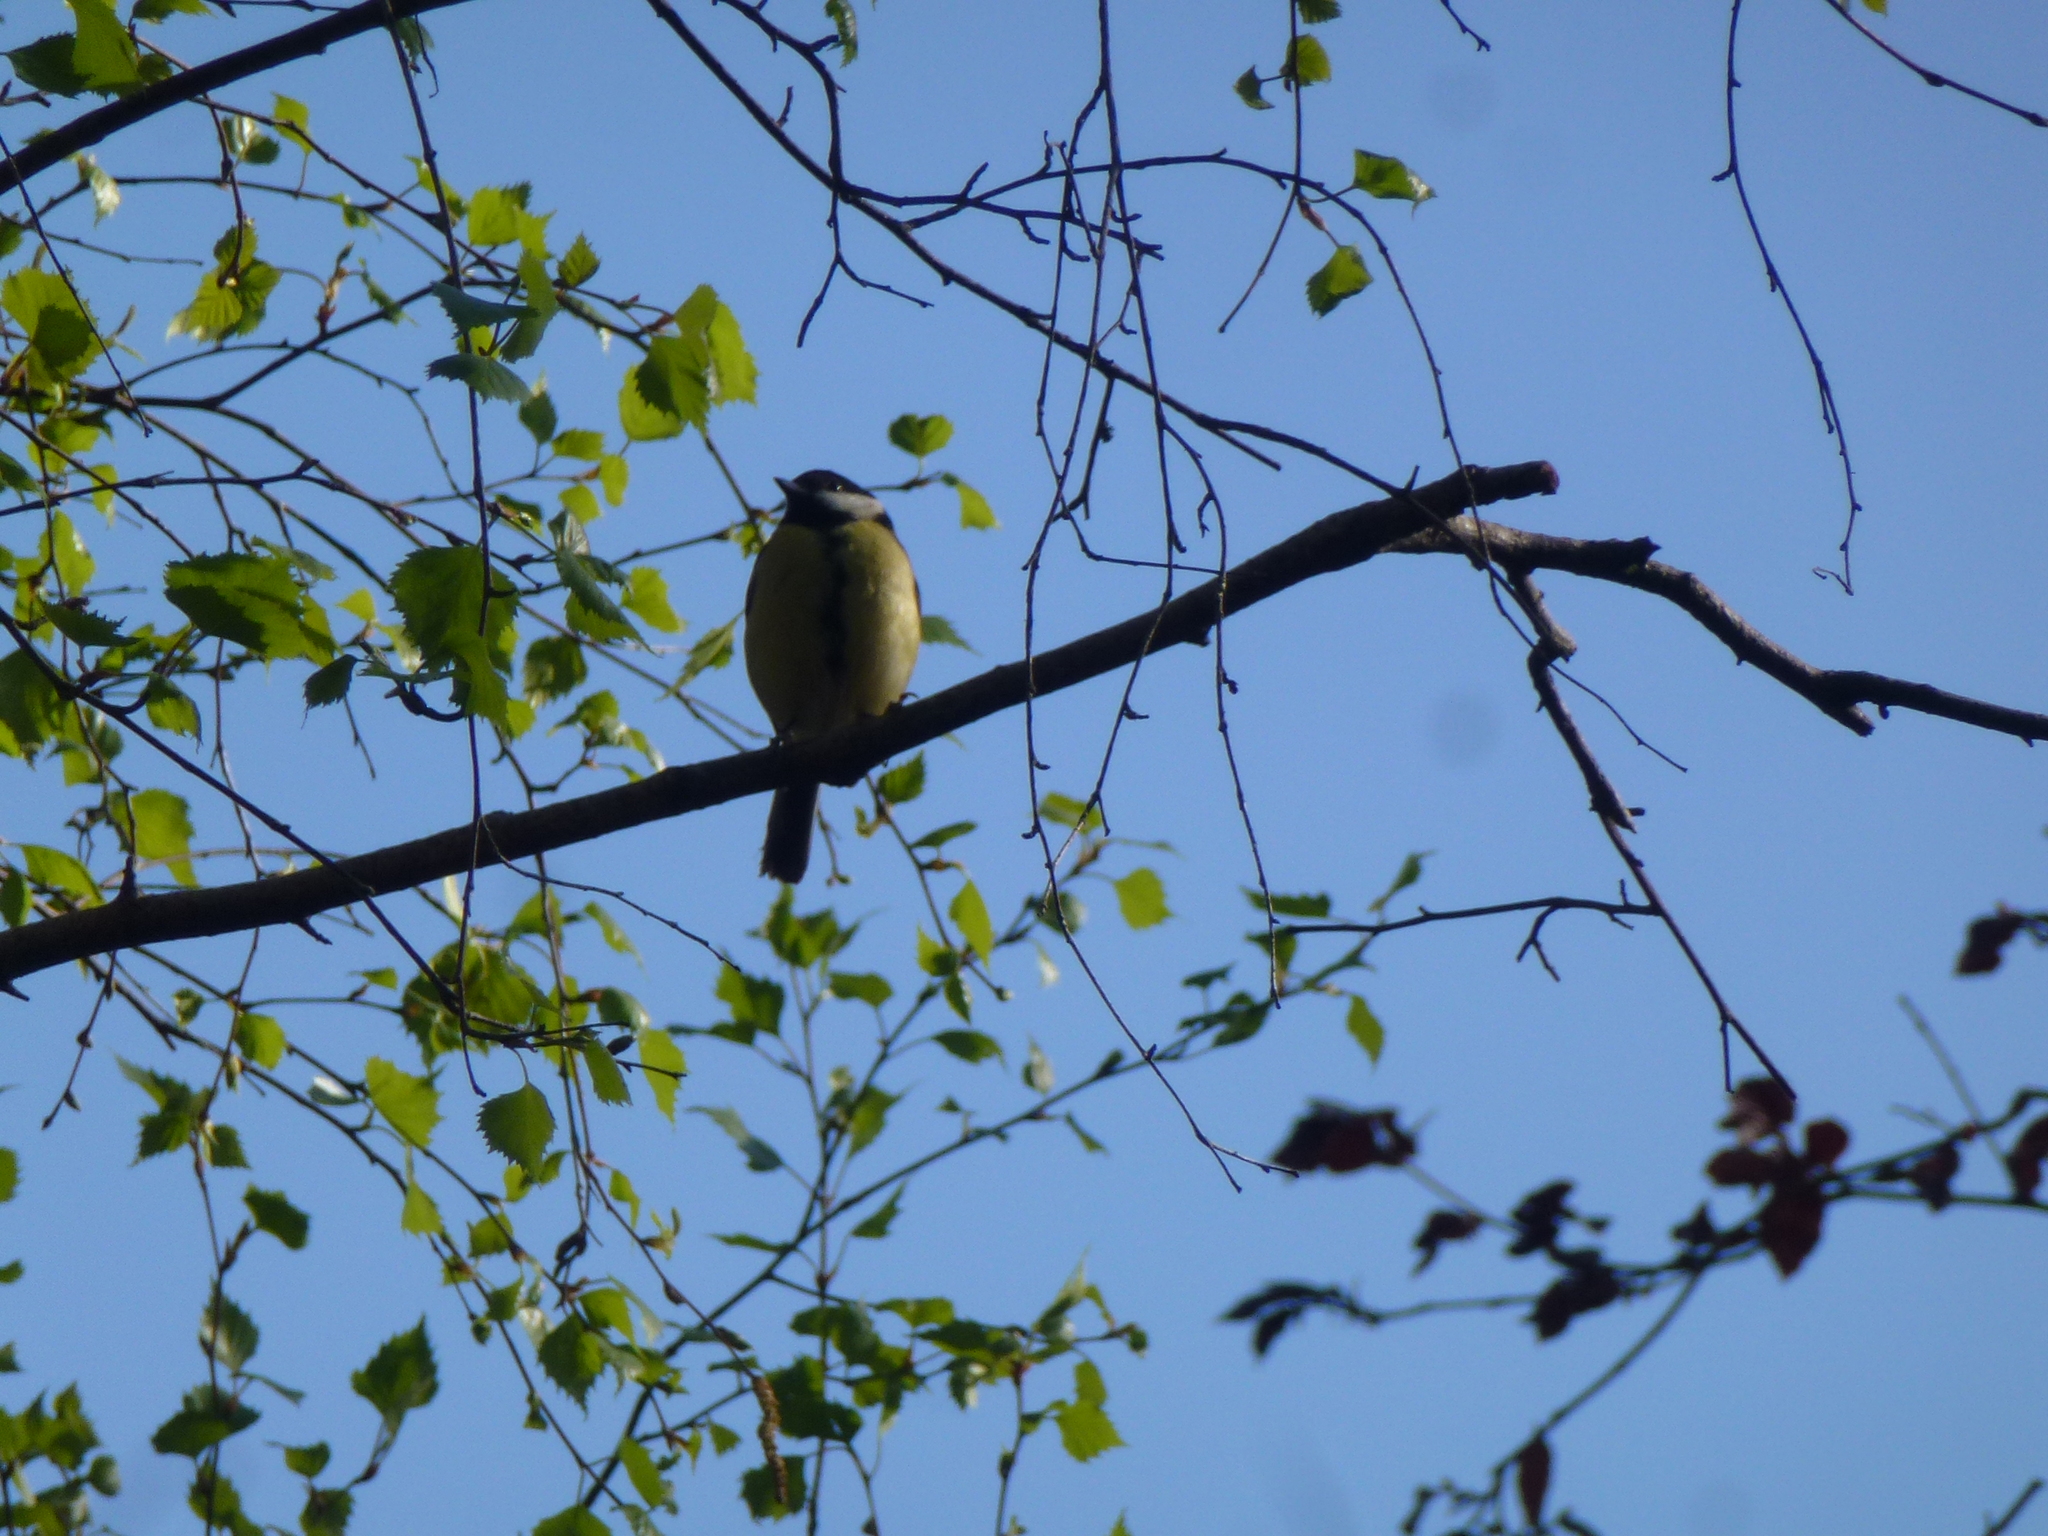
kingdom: Animalia
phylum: Chordata
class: Aves
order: Passeriformes
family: Paridae
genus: Parus
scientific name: Parus major
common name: Great tit
